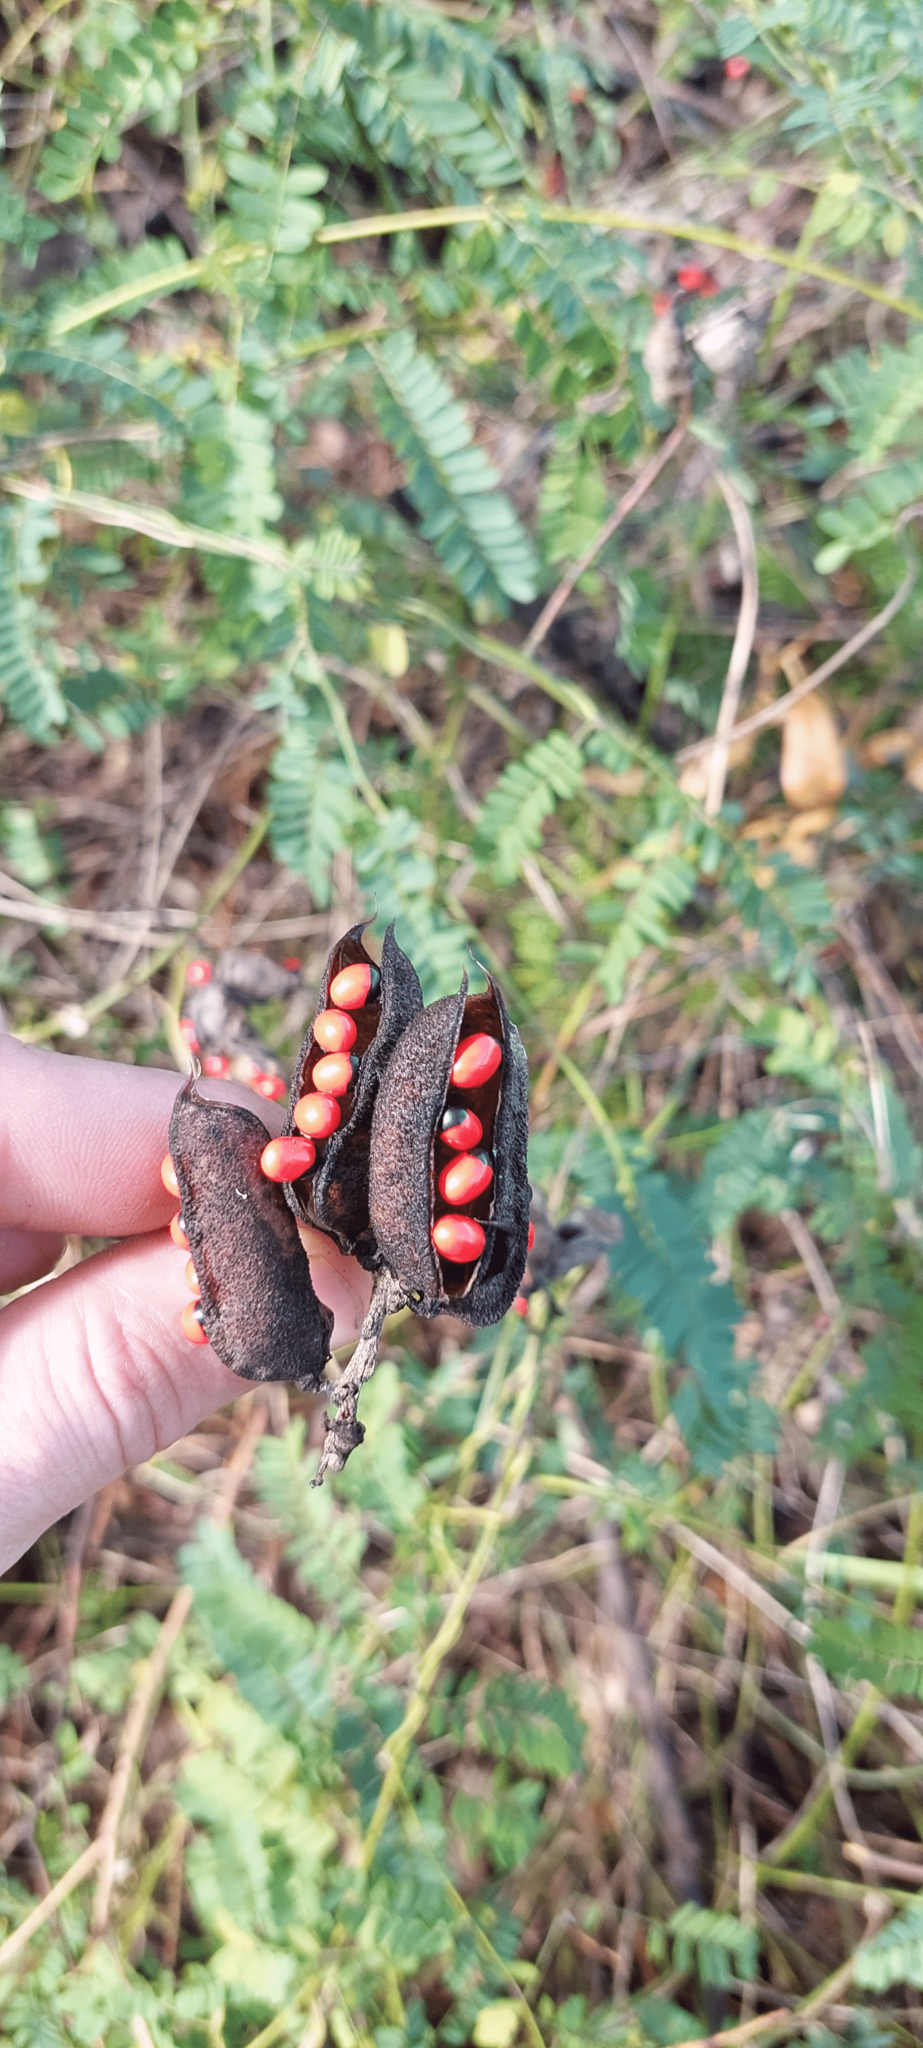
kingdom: Plantae
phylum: Tracheophyta
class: Magnoliopsida
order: Fabales
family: Fabaceae
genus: Abrus
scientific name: Abrus precatorius
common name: Rosarypea
